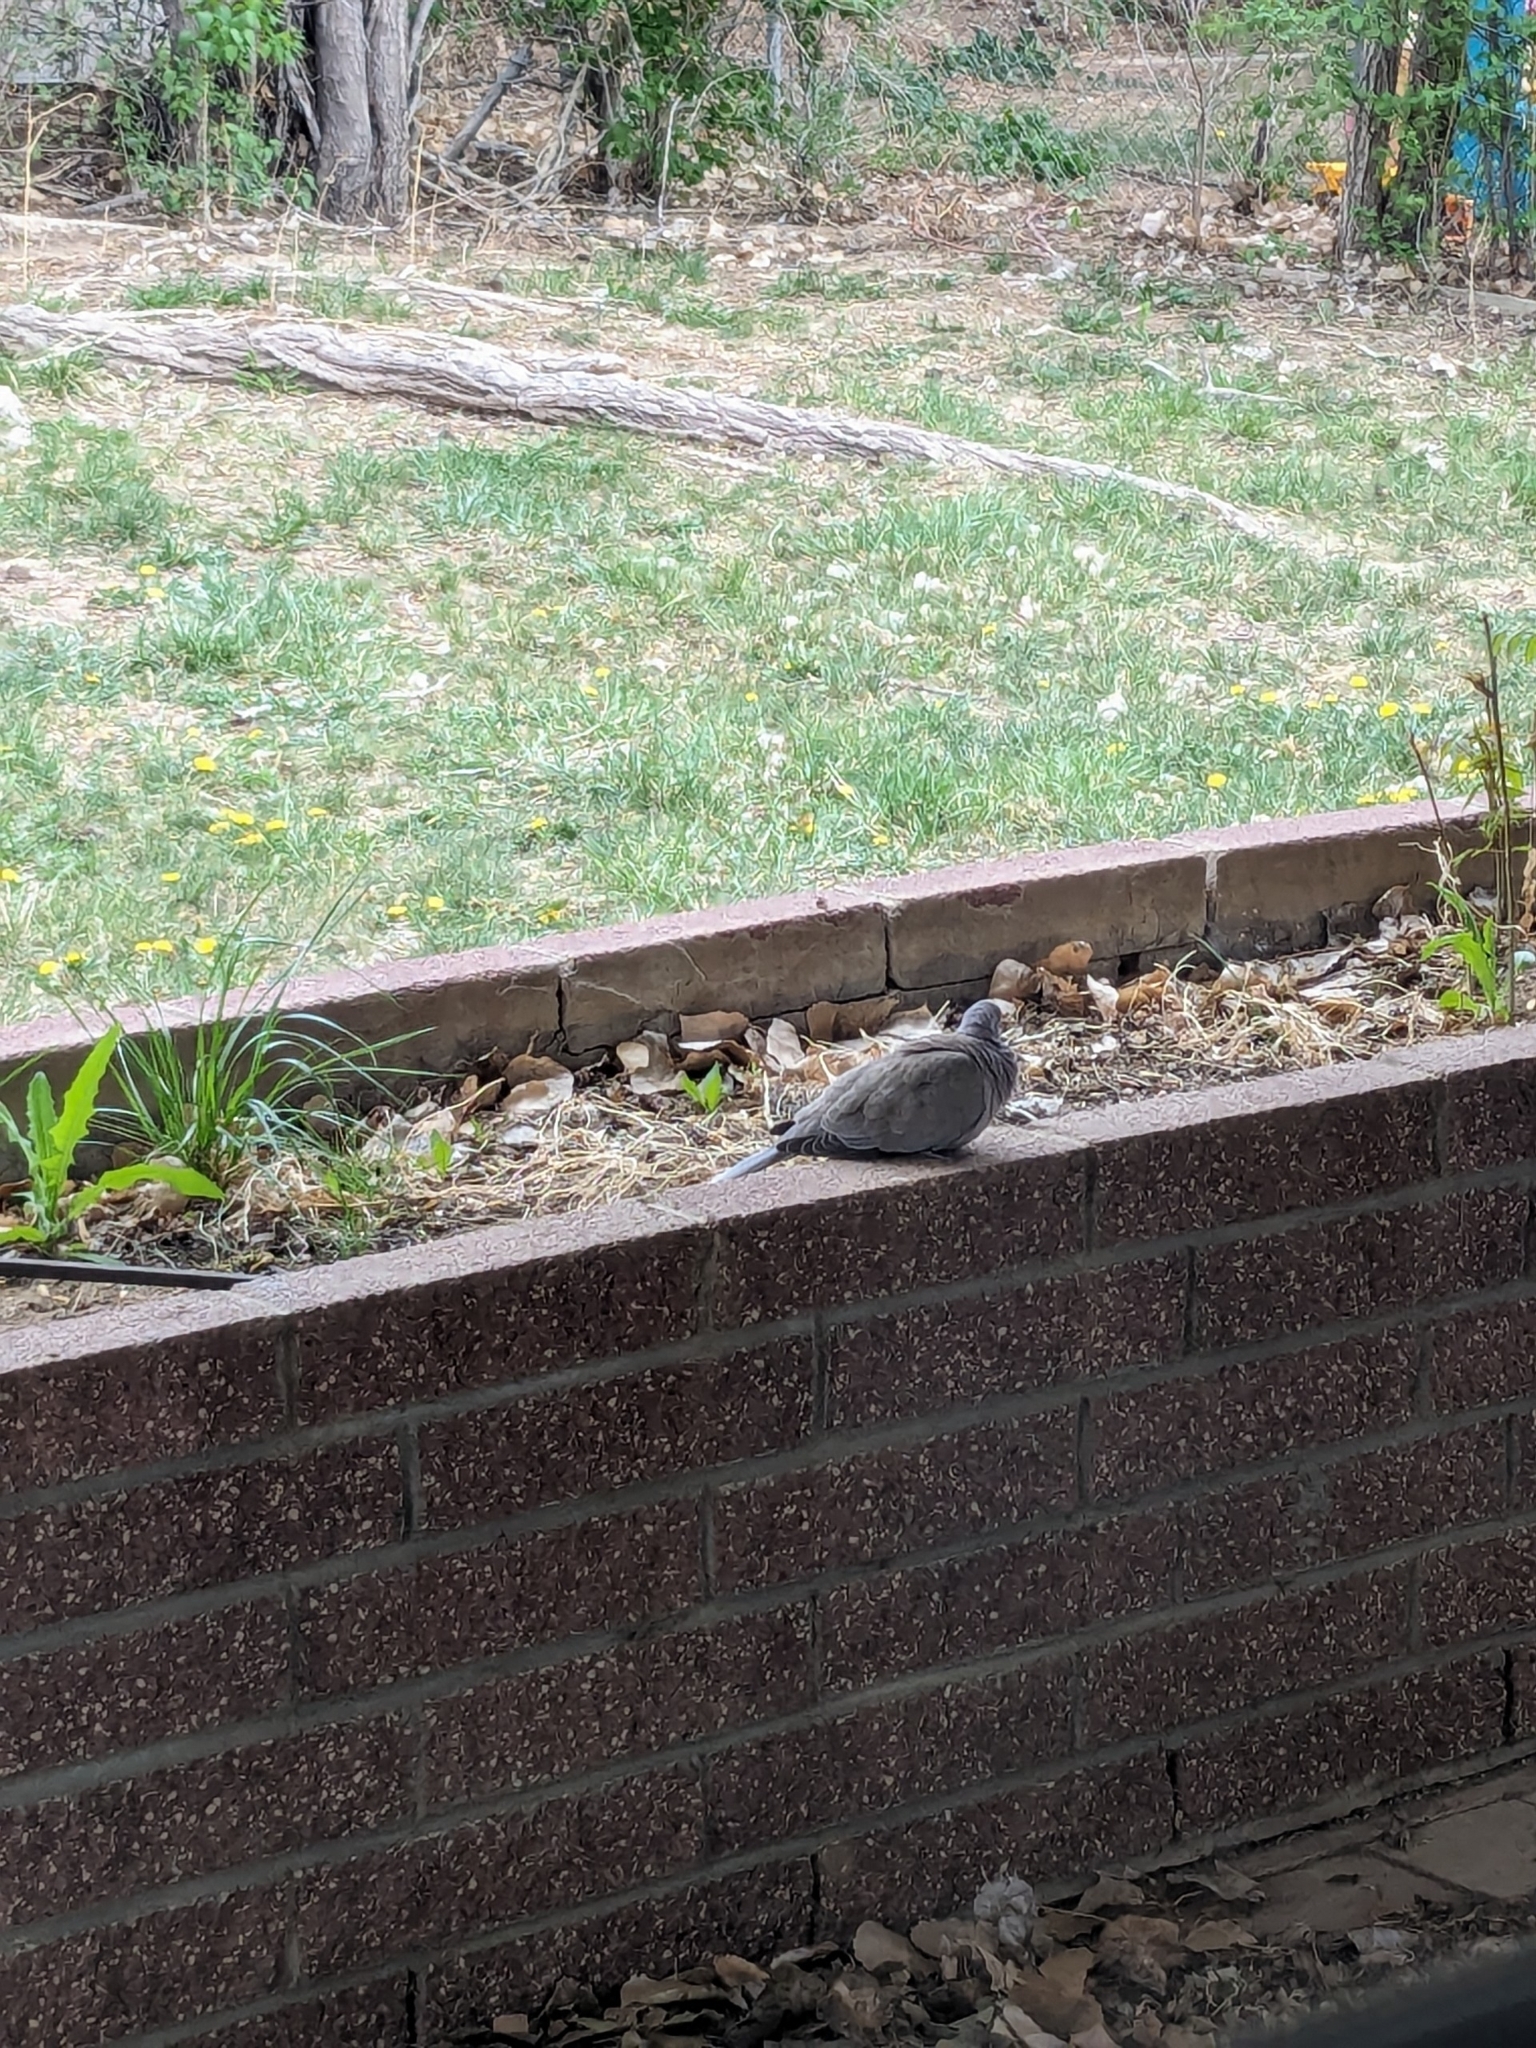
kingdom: Animalia
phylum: Chordata
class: Aves
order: Columbiformes
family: Columbidae
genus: Streptopelia
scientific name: Streptopelia decaocto
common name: Eurasian collared dove
